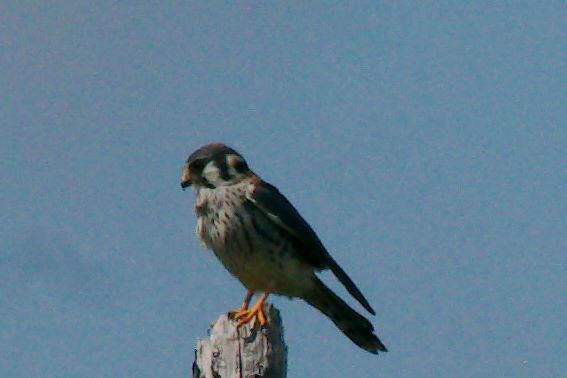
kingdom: Animalia
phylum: Chordata
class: Aves
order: Falconiformes
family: Falconidae
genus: Falco
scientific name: Falco sparverius
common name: American kestrel
